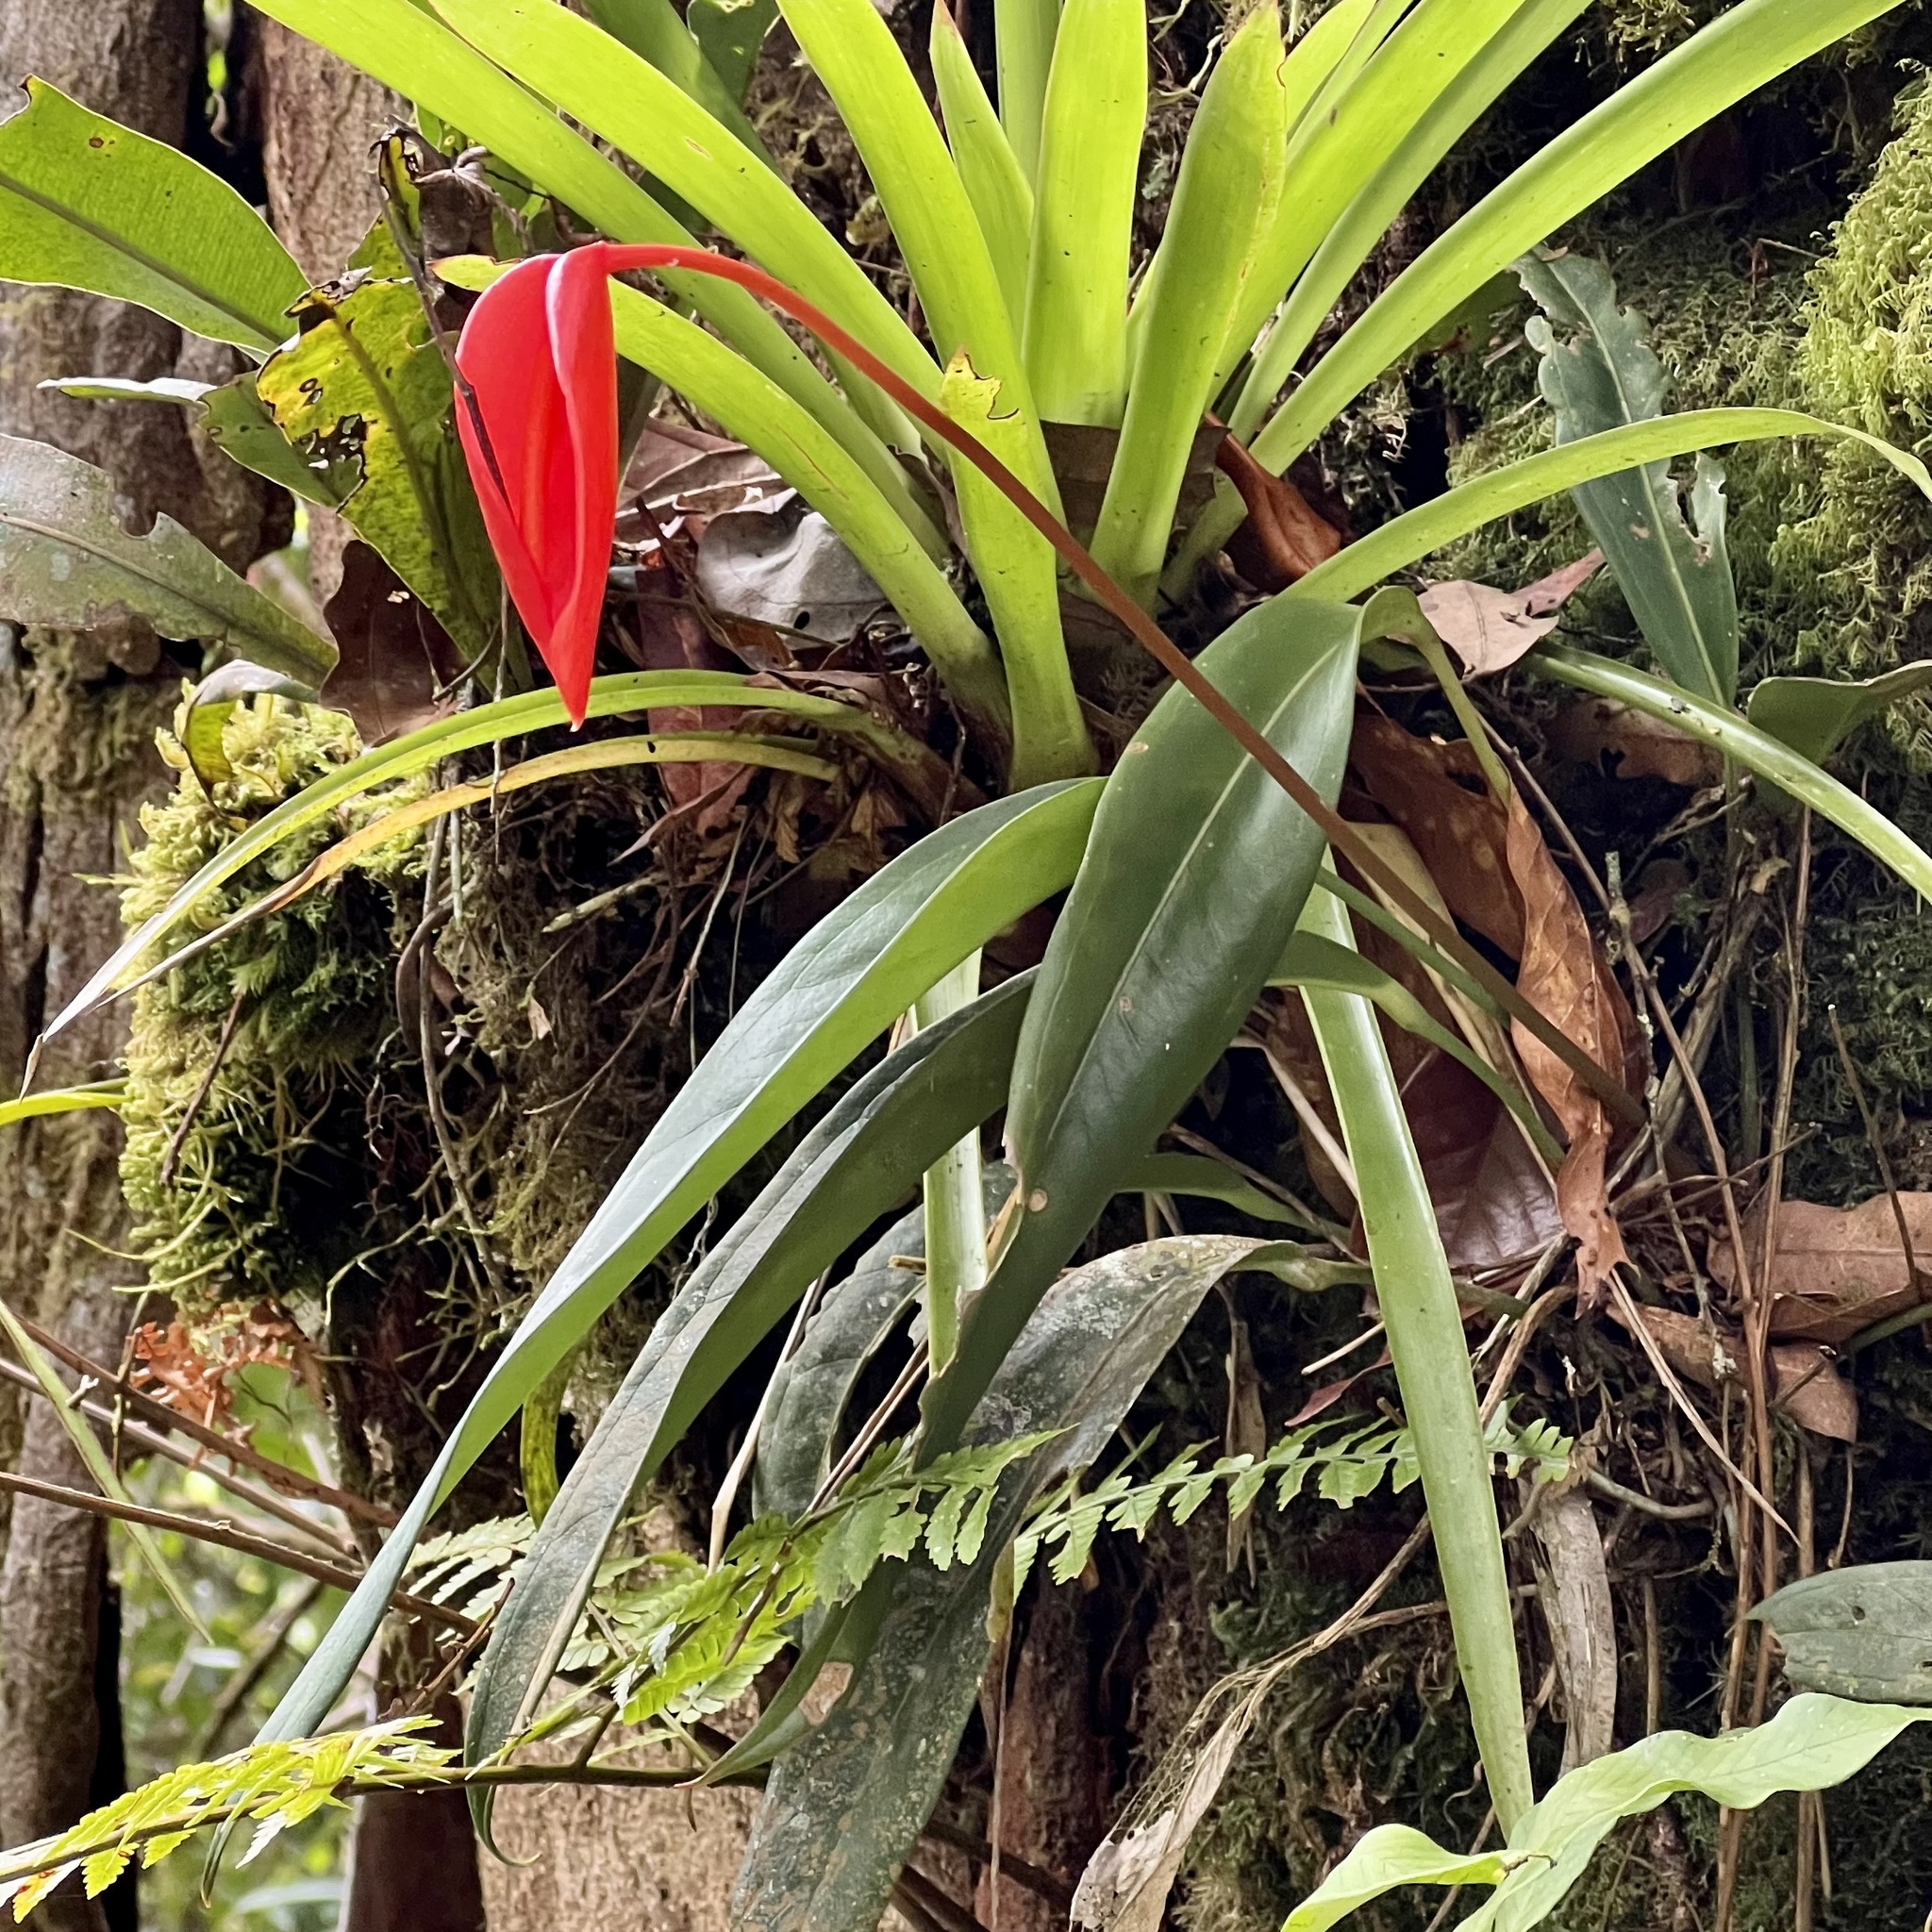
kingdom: Plantae
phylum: Tracheophyta
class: Liliopsida
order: Alismatales
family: Araceae
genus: Anthurium
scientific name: Anthurium scherzerianum
